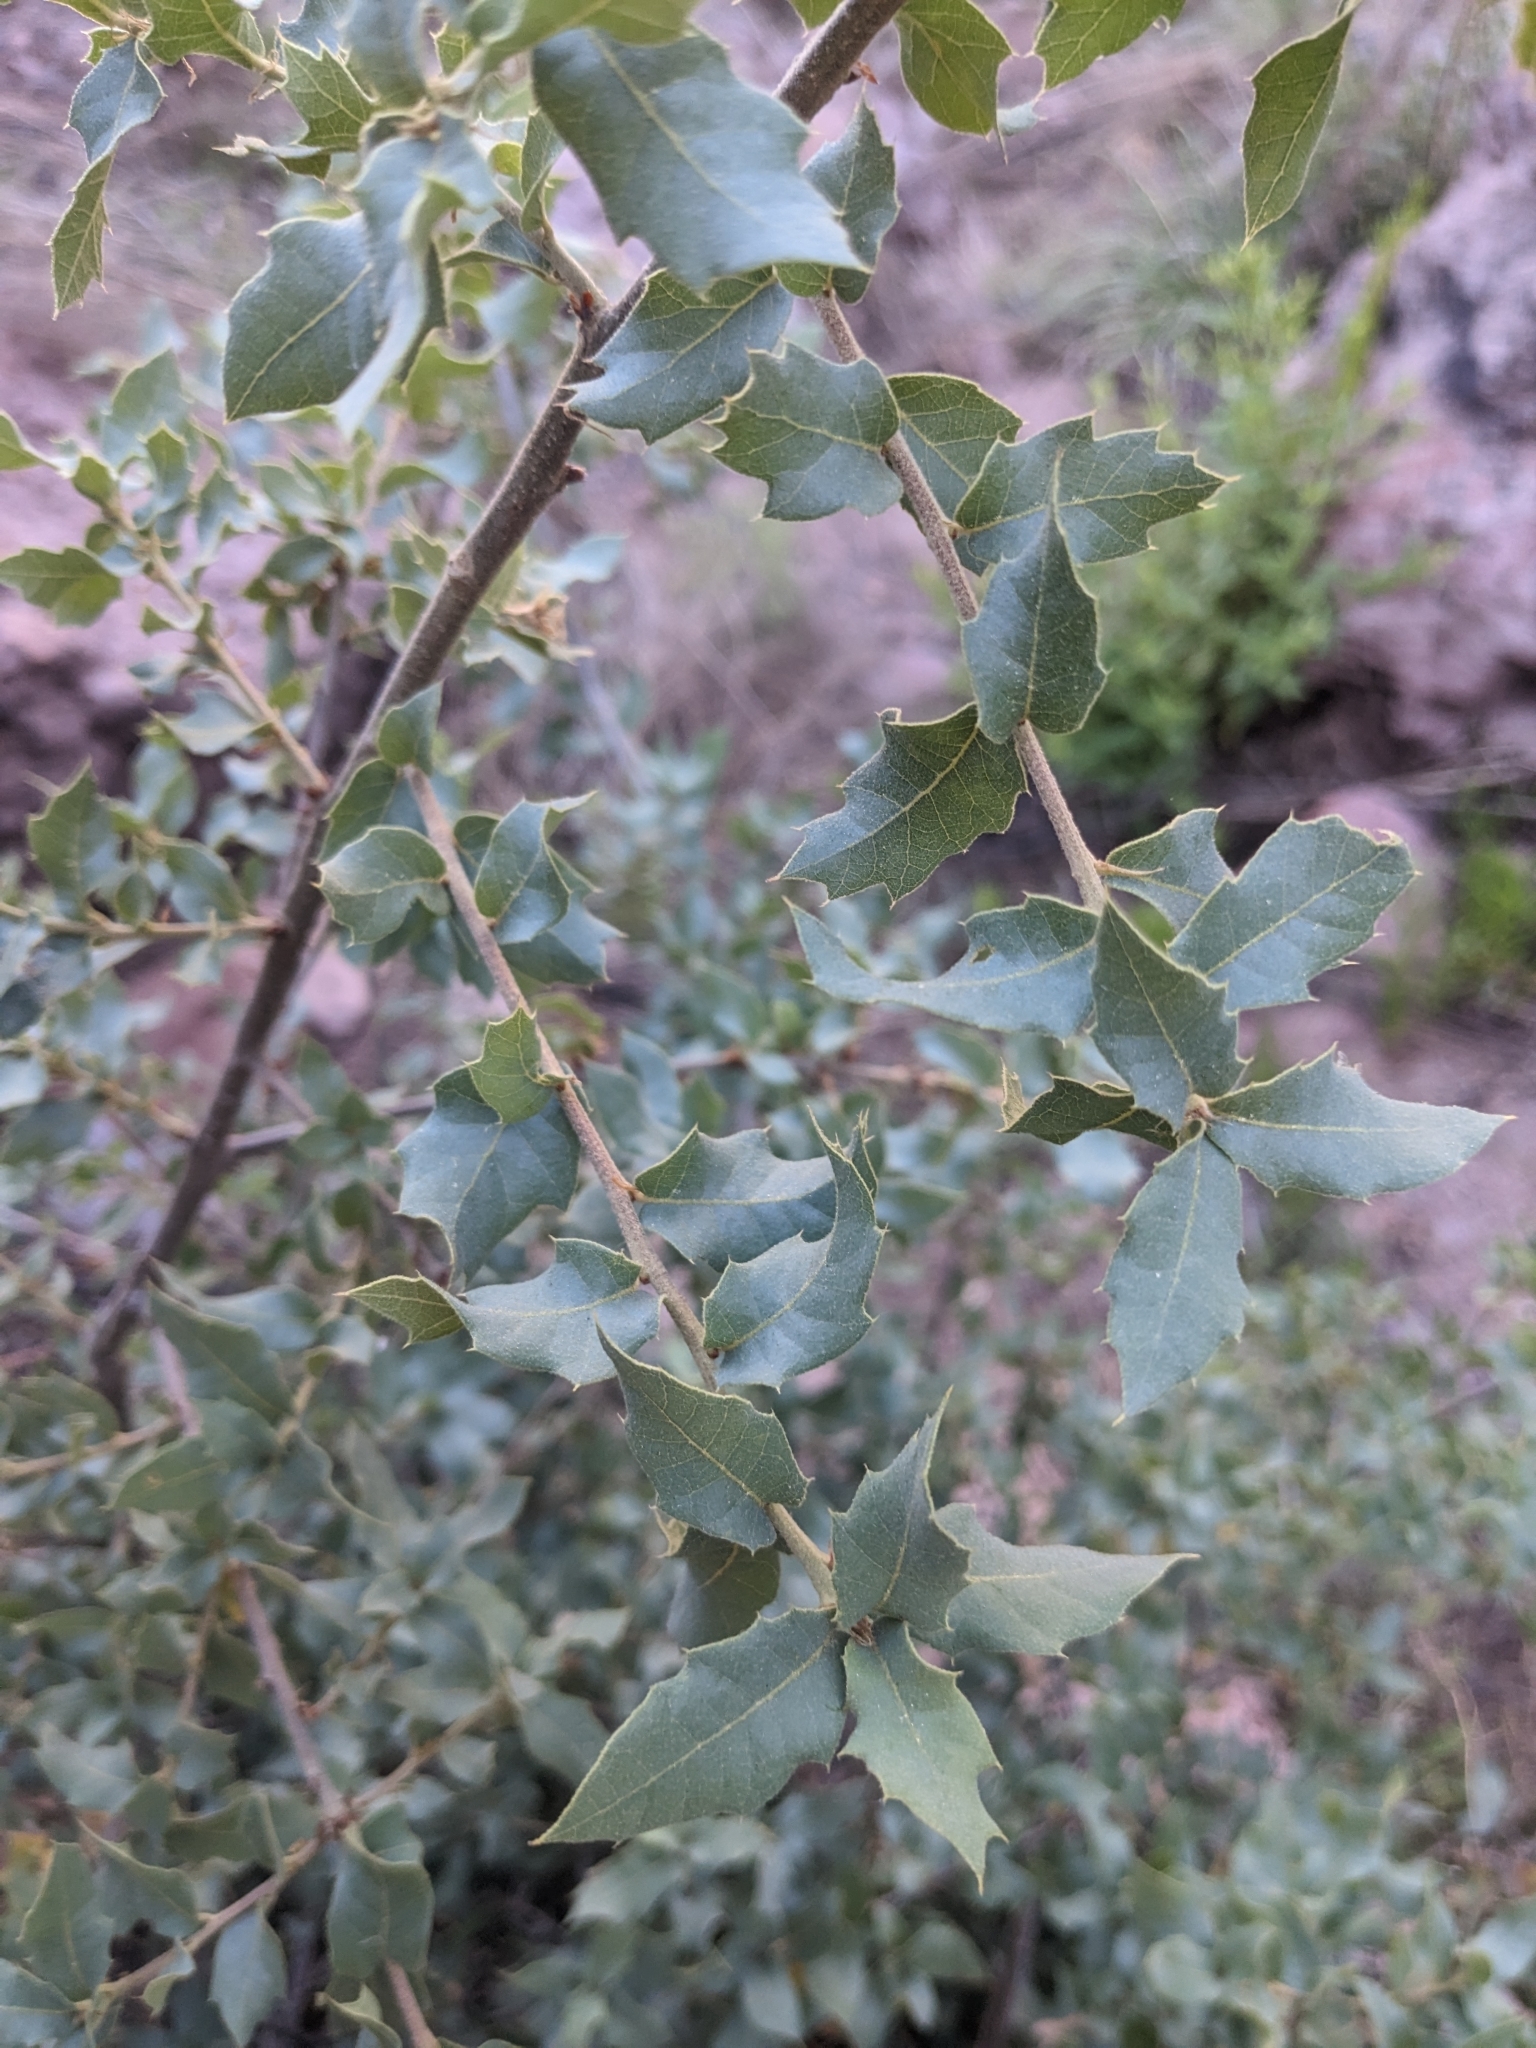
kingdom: Plantae
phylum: Tracheophyta
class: Magnoliopsida
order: Fagales
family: Fagaceae
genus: Quercus
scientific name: Quercus turbinella
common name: Sonoran scrub oak
